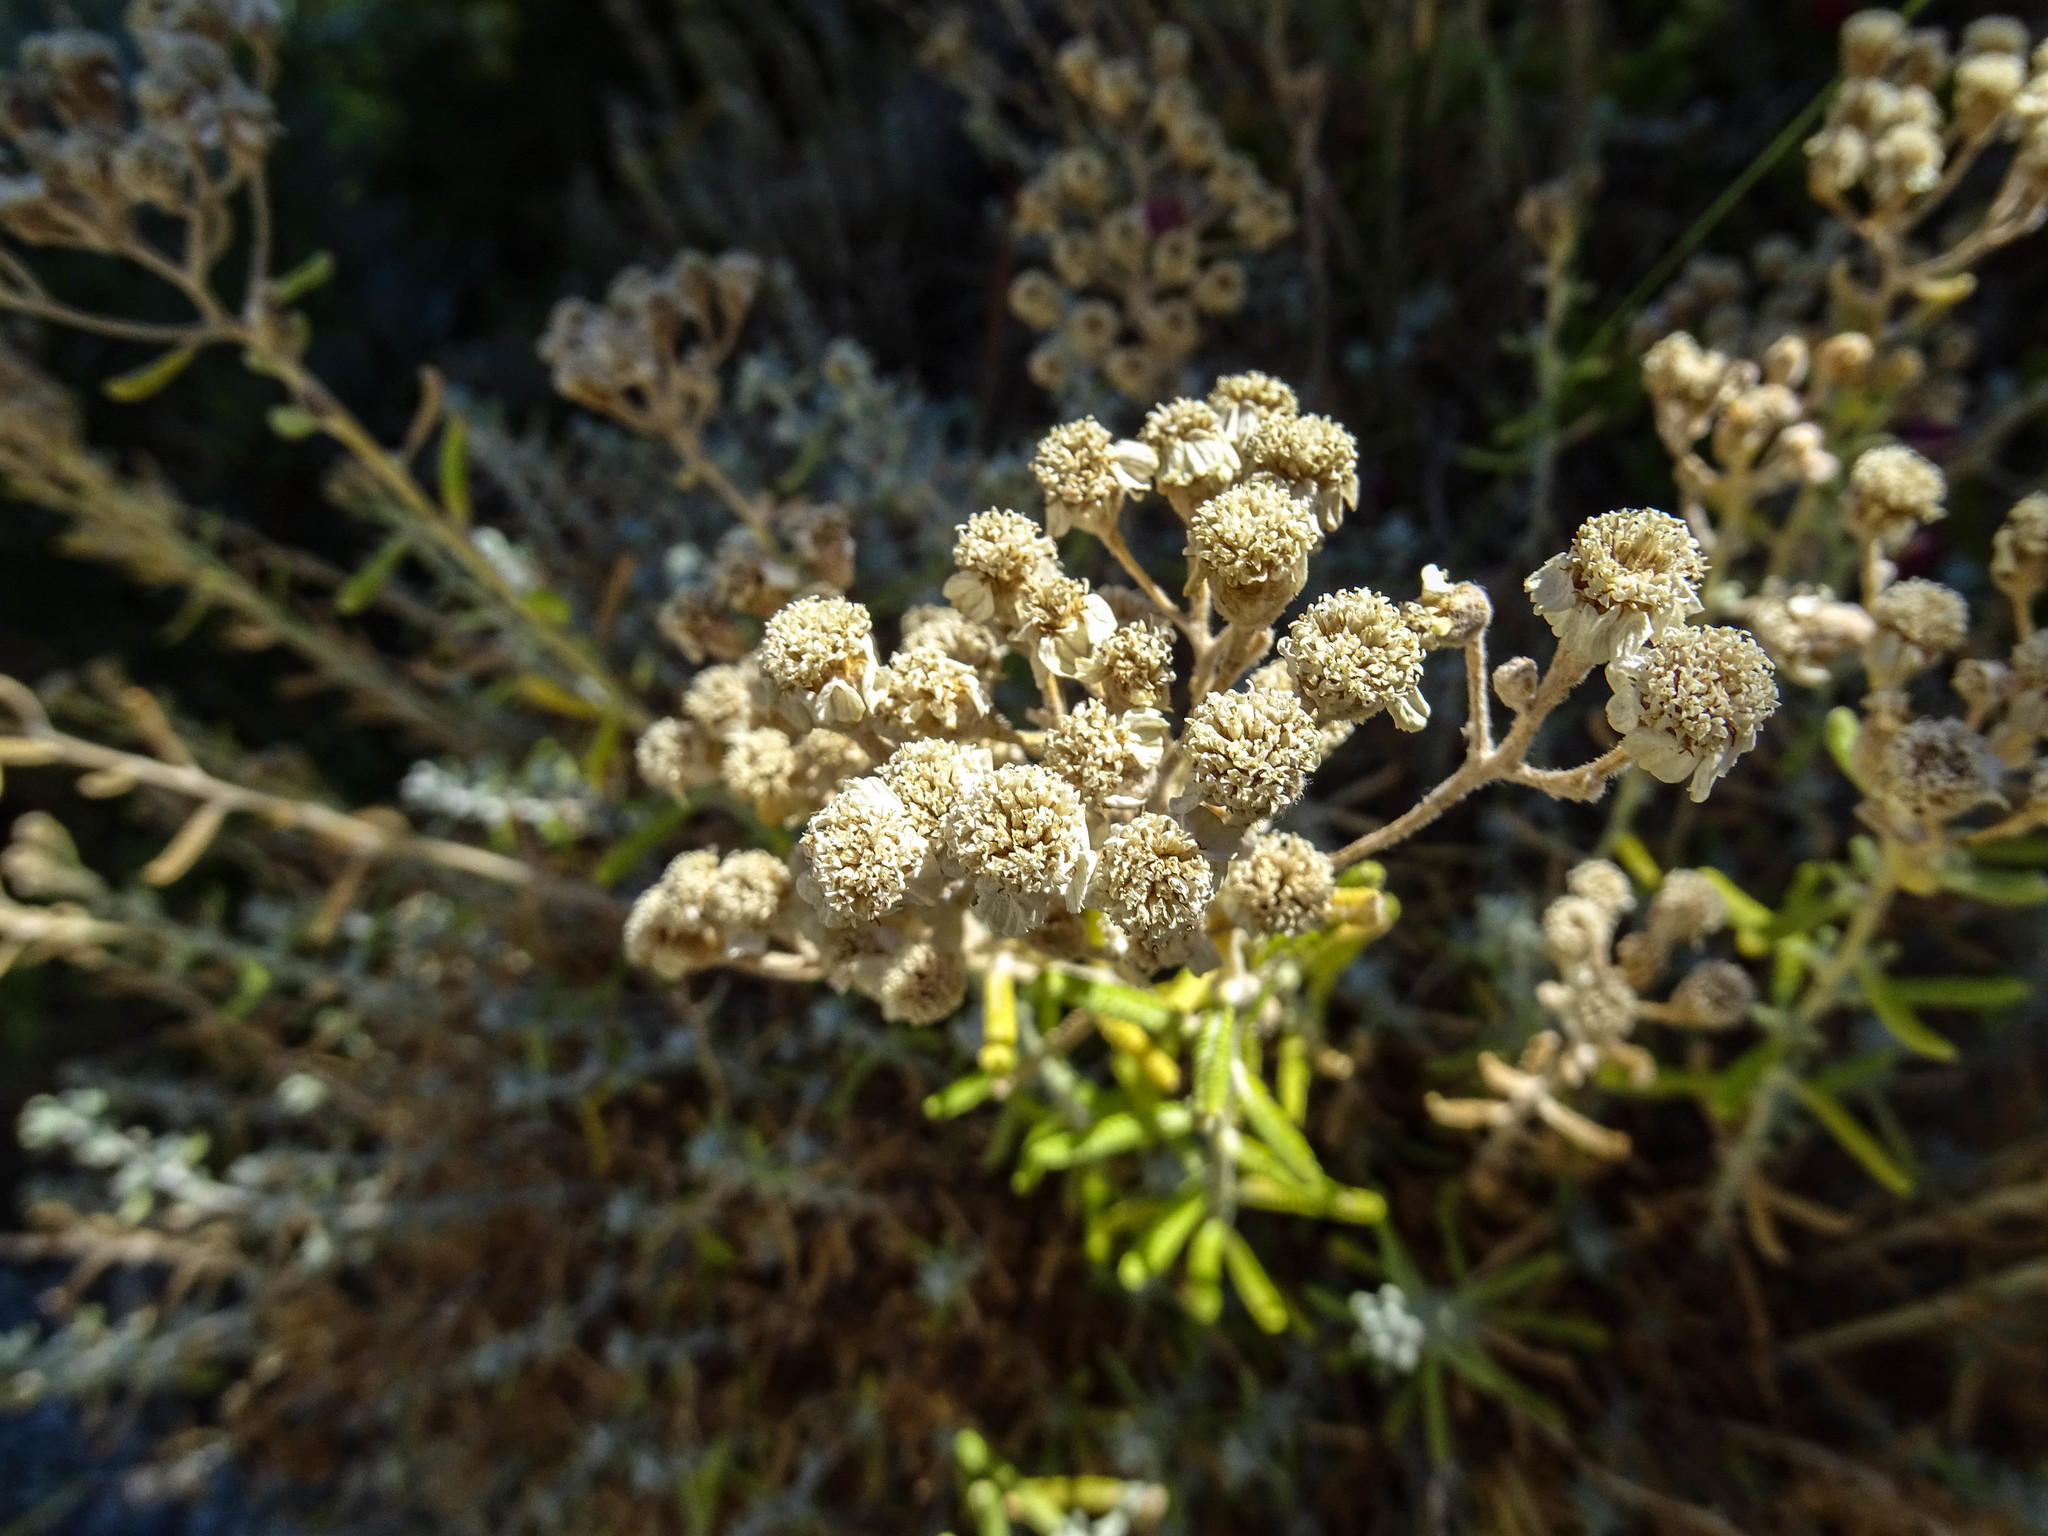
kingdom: Plantae
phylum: Tracheophyta
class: Magnoliopsida
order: Asterales
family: Asteraceae
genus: Achillea
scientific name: Achillea cretica
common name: Chamomile-leaved lavender-cotton
